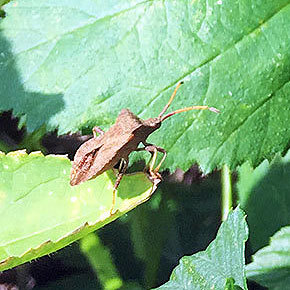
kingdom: Animalia
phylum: Arthropoda
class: Insecta
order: Hemiptera
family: Coreidae
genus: Coreus
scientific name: Coreus marginatus
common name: Dock bug
